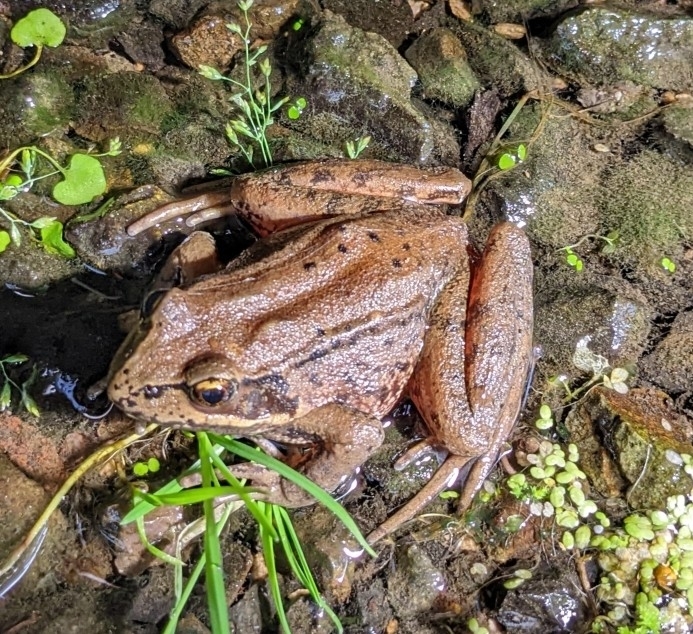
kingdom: Animalia
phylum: Chordata
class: Amphibia
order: Anura
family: Ranidae
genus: Rana
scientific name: Rana aurora
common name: Red-legged frog
